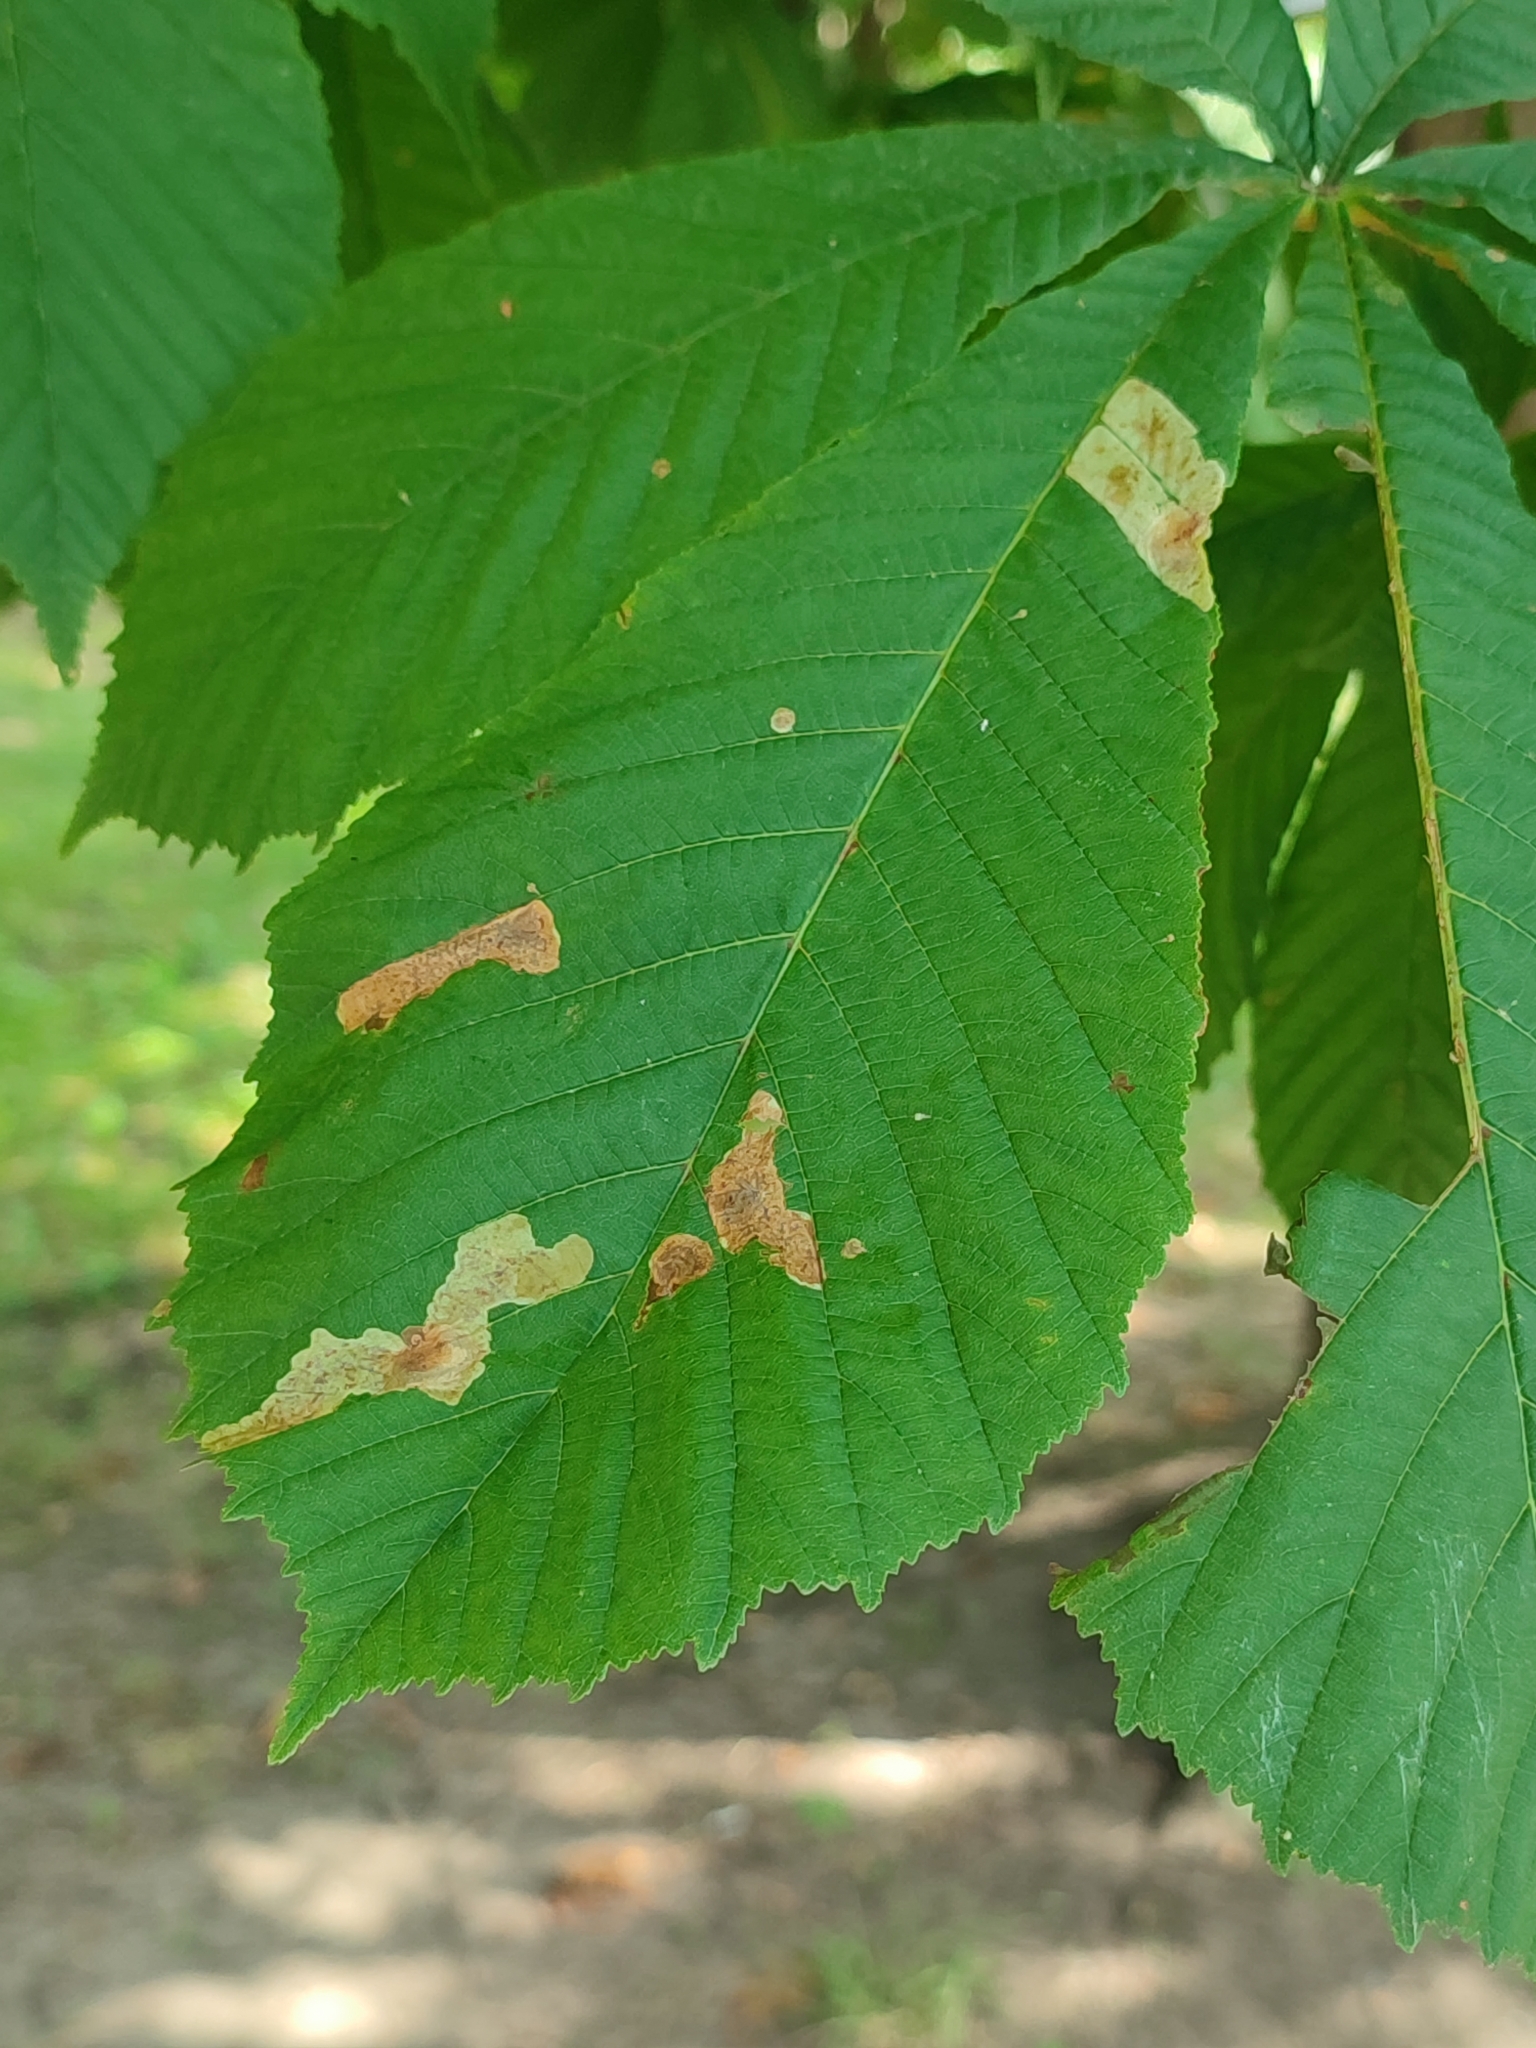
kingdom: Animalia
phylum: Arthropoda
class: Insecta
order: Lepidoptera
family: Gracillariidae
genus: Cameraria
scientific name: Cameraria ohridella
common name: Horse-chestnut leaf-miner
